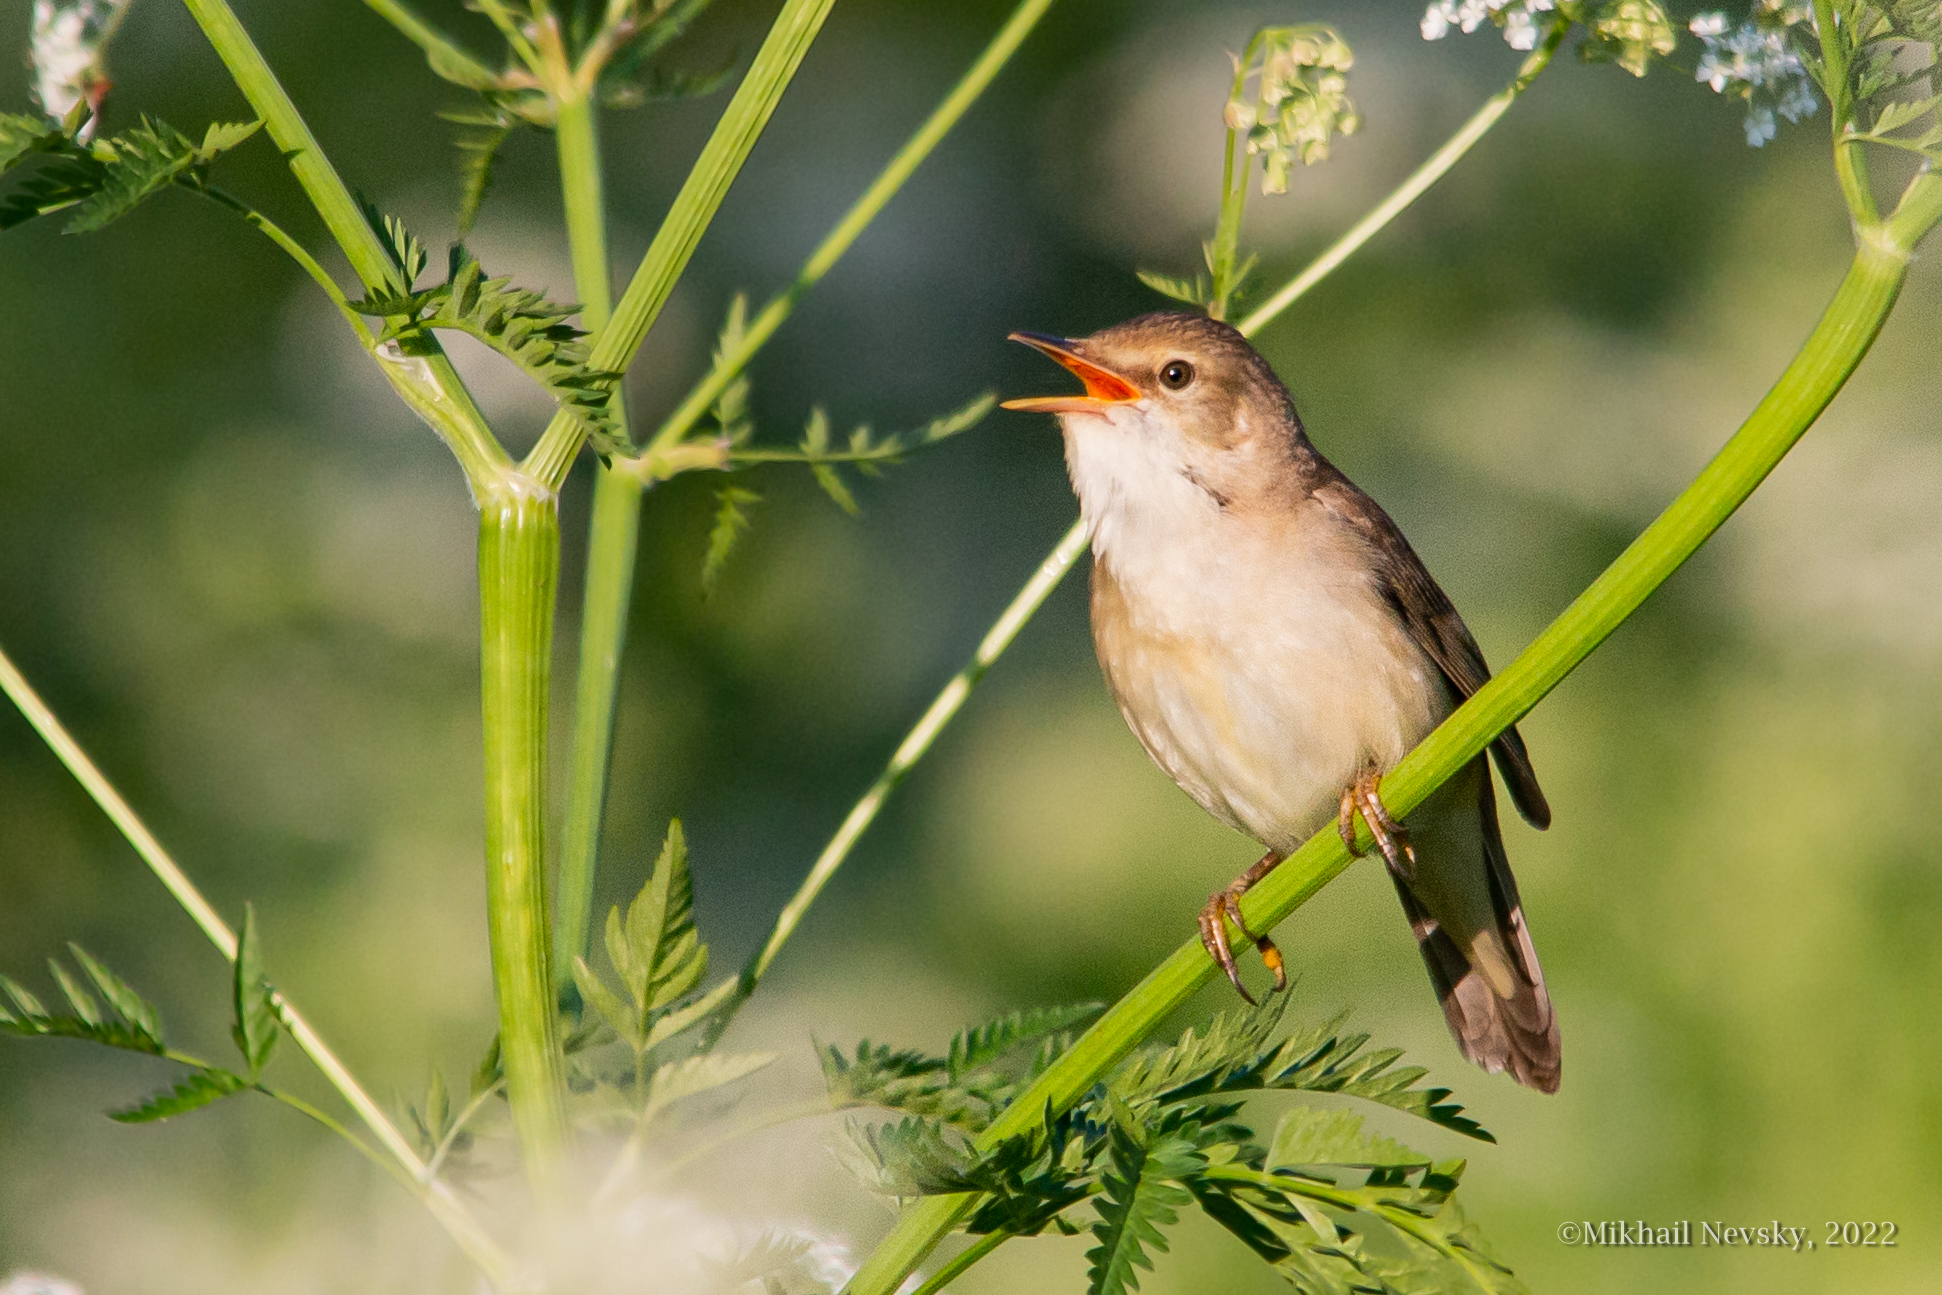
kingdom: Animalia
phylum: Chordata
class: Aves
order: Passeriformes
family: Acrocephalidae
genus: Acrocephalus
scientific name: Acrocephalus palustris
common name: Marsh warbler
